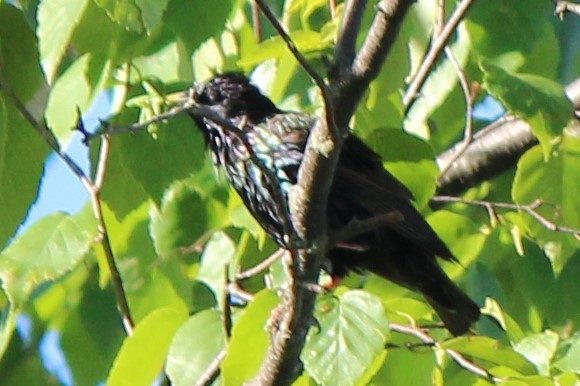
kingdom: Animalia
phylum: Chordata
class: Aves
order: Passeriformes
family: Sturnidae
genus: Sturnus
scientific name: Sturnus vulgaris
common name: Common starling
